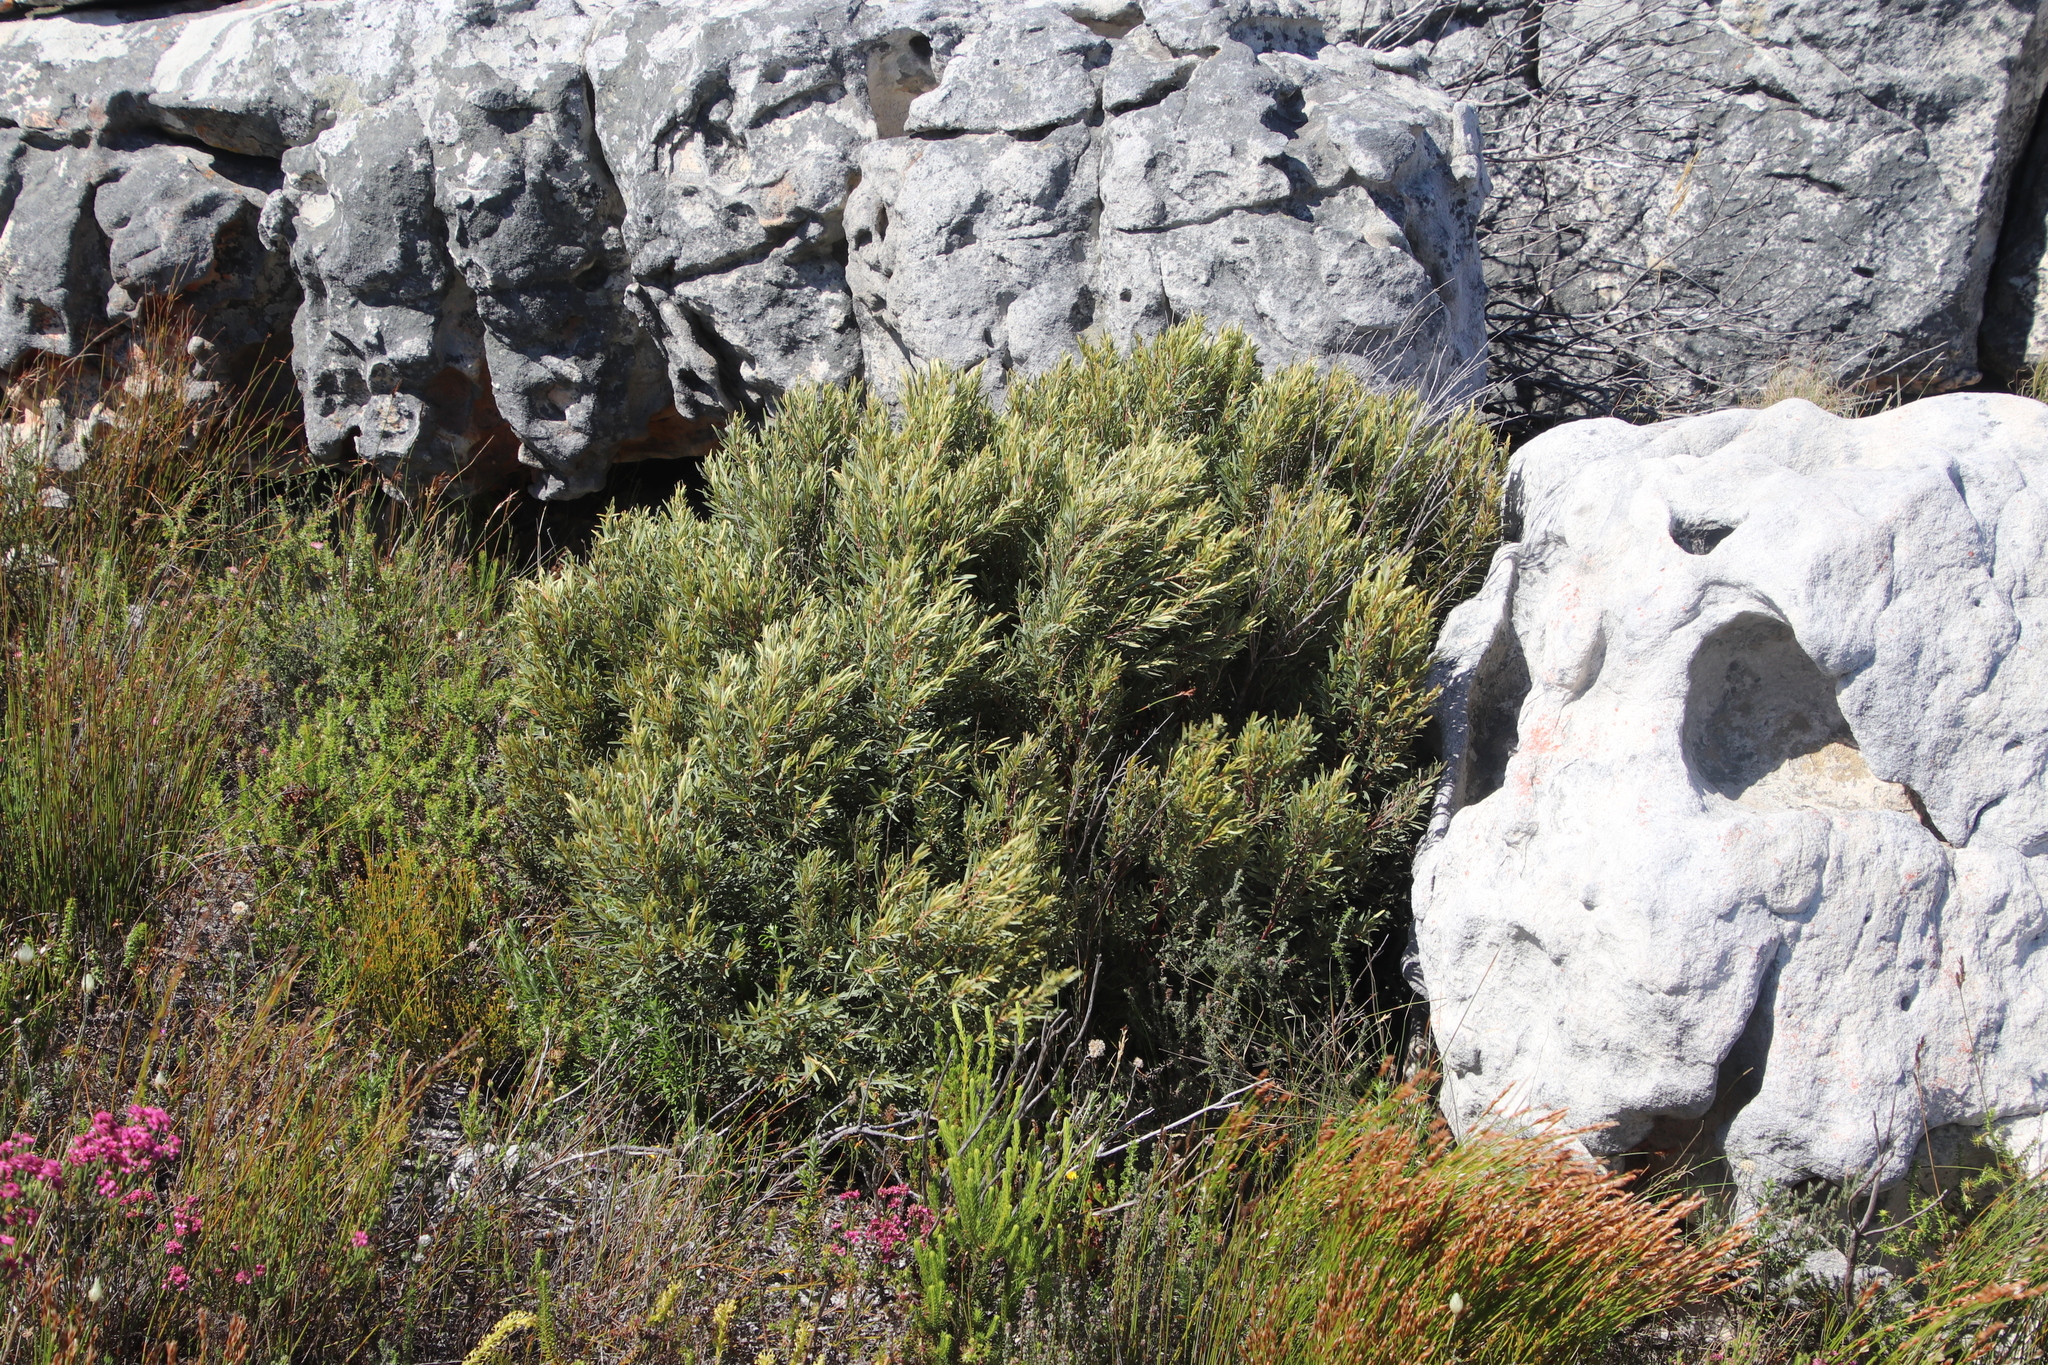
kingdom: Plantae
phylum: Tracheophyta
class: Magnoliopsida
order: Cornales
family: Grubbiaceae
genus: Grubbia
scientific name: Grubbia tomentosa
